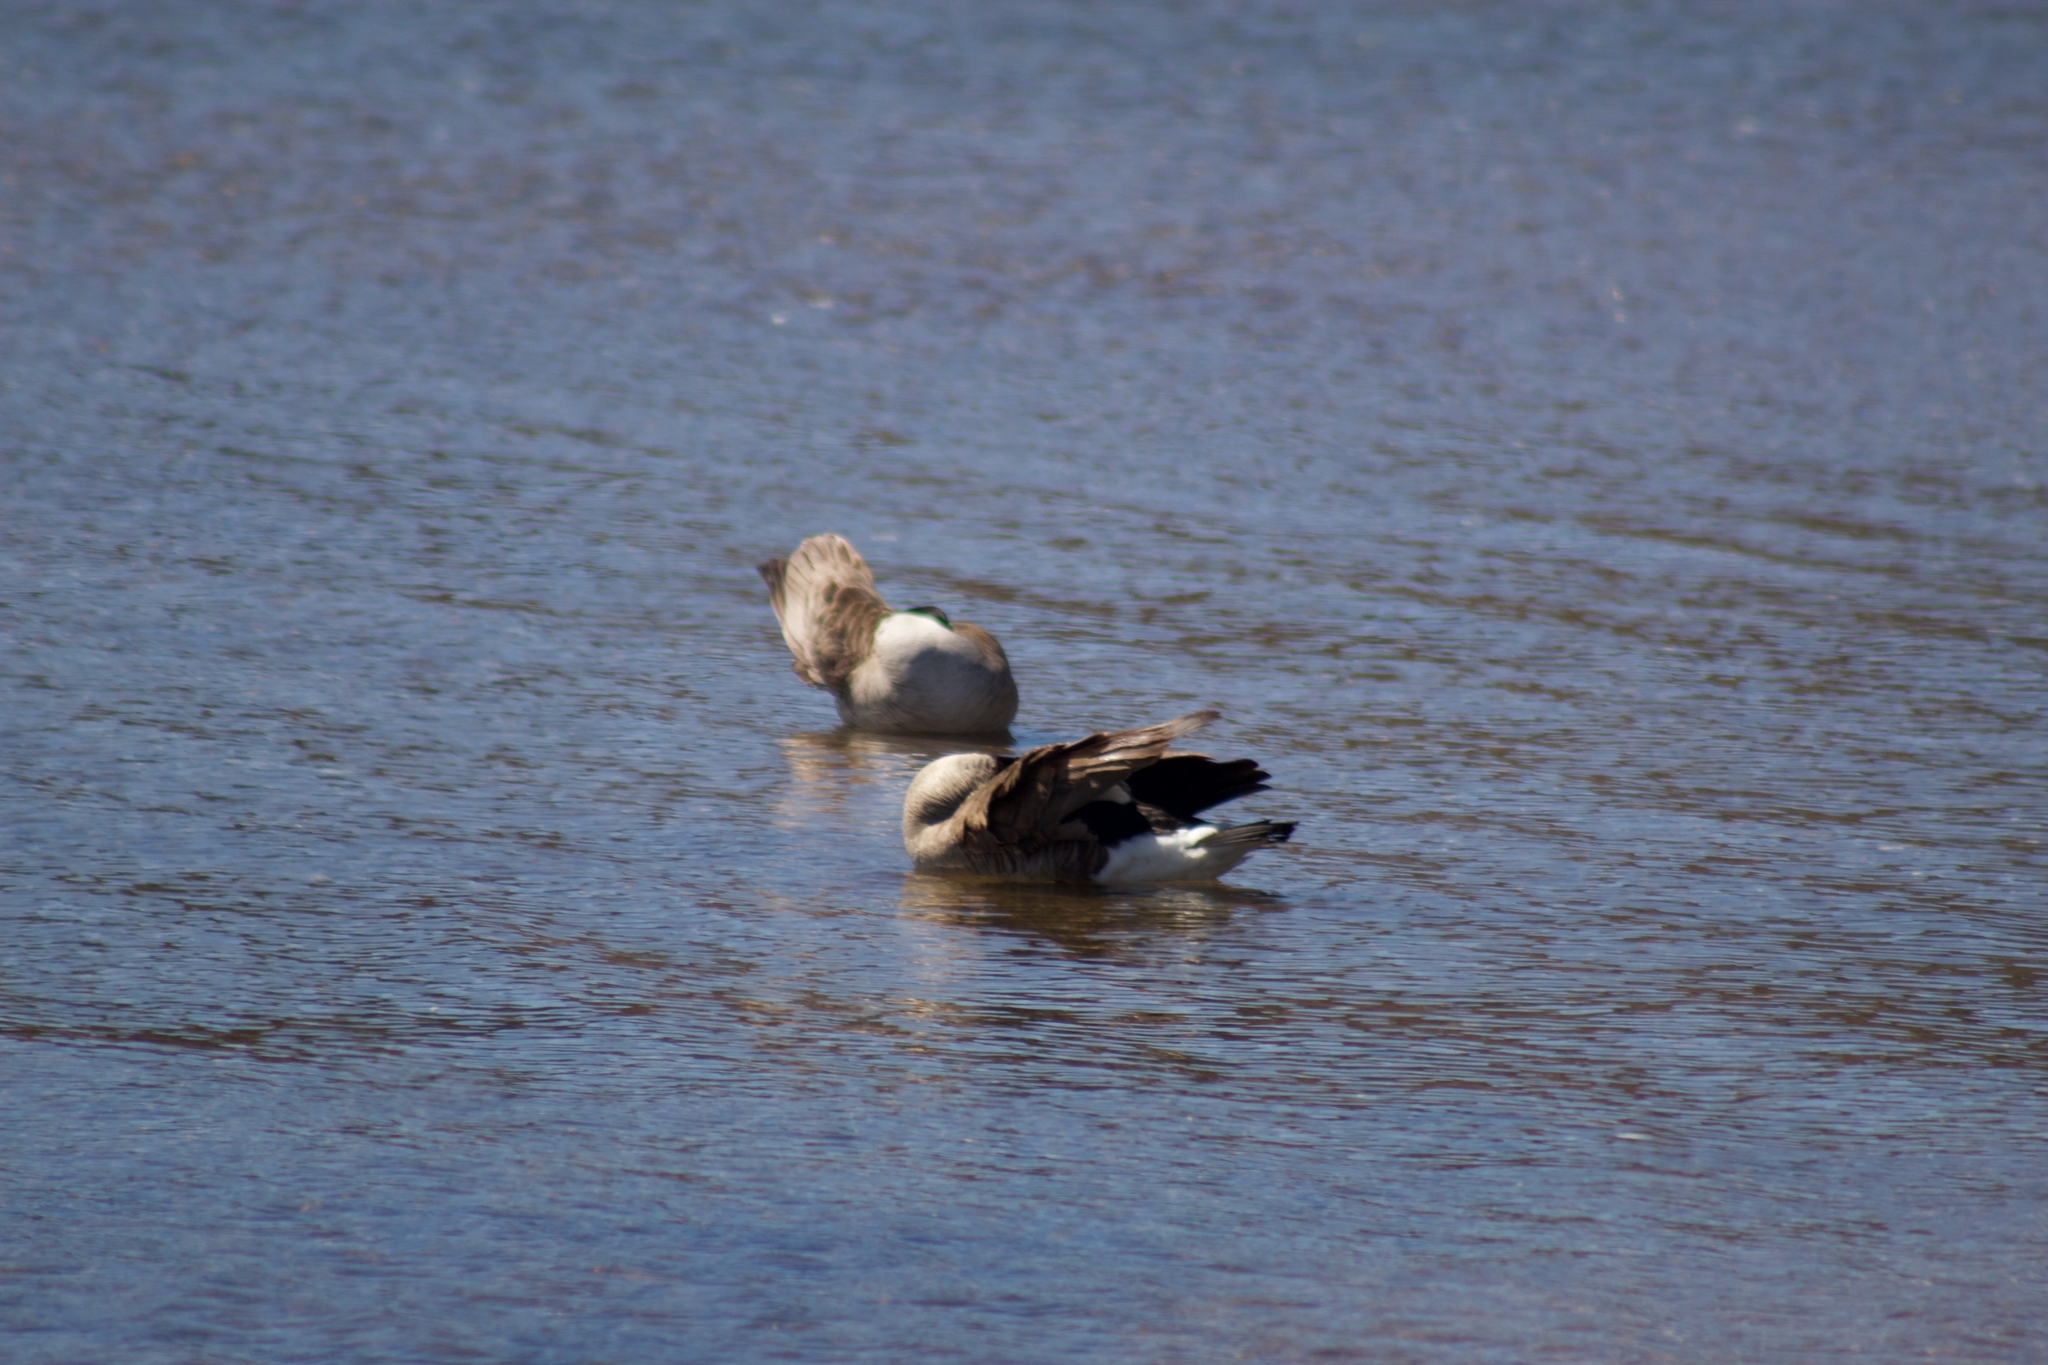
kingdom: Animalia
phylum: Chordata
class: Aves
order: Anseriformes
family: Anatidae
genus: Branta
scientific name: Branta canadensis
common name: Canada goose
